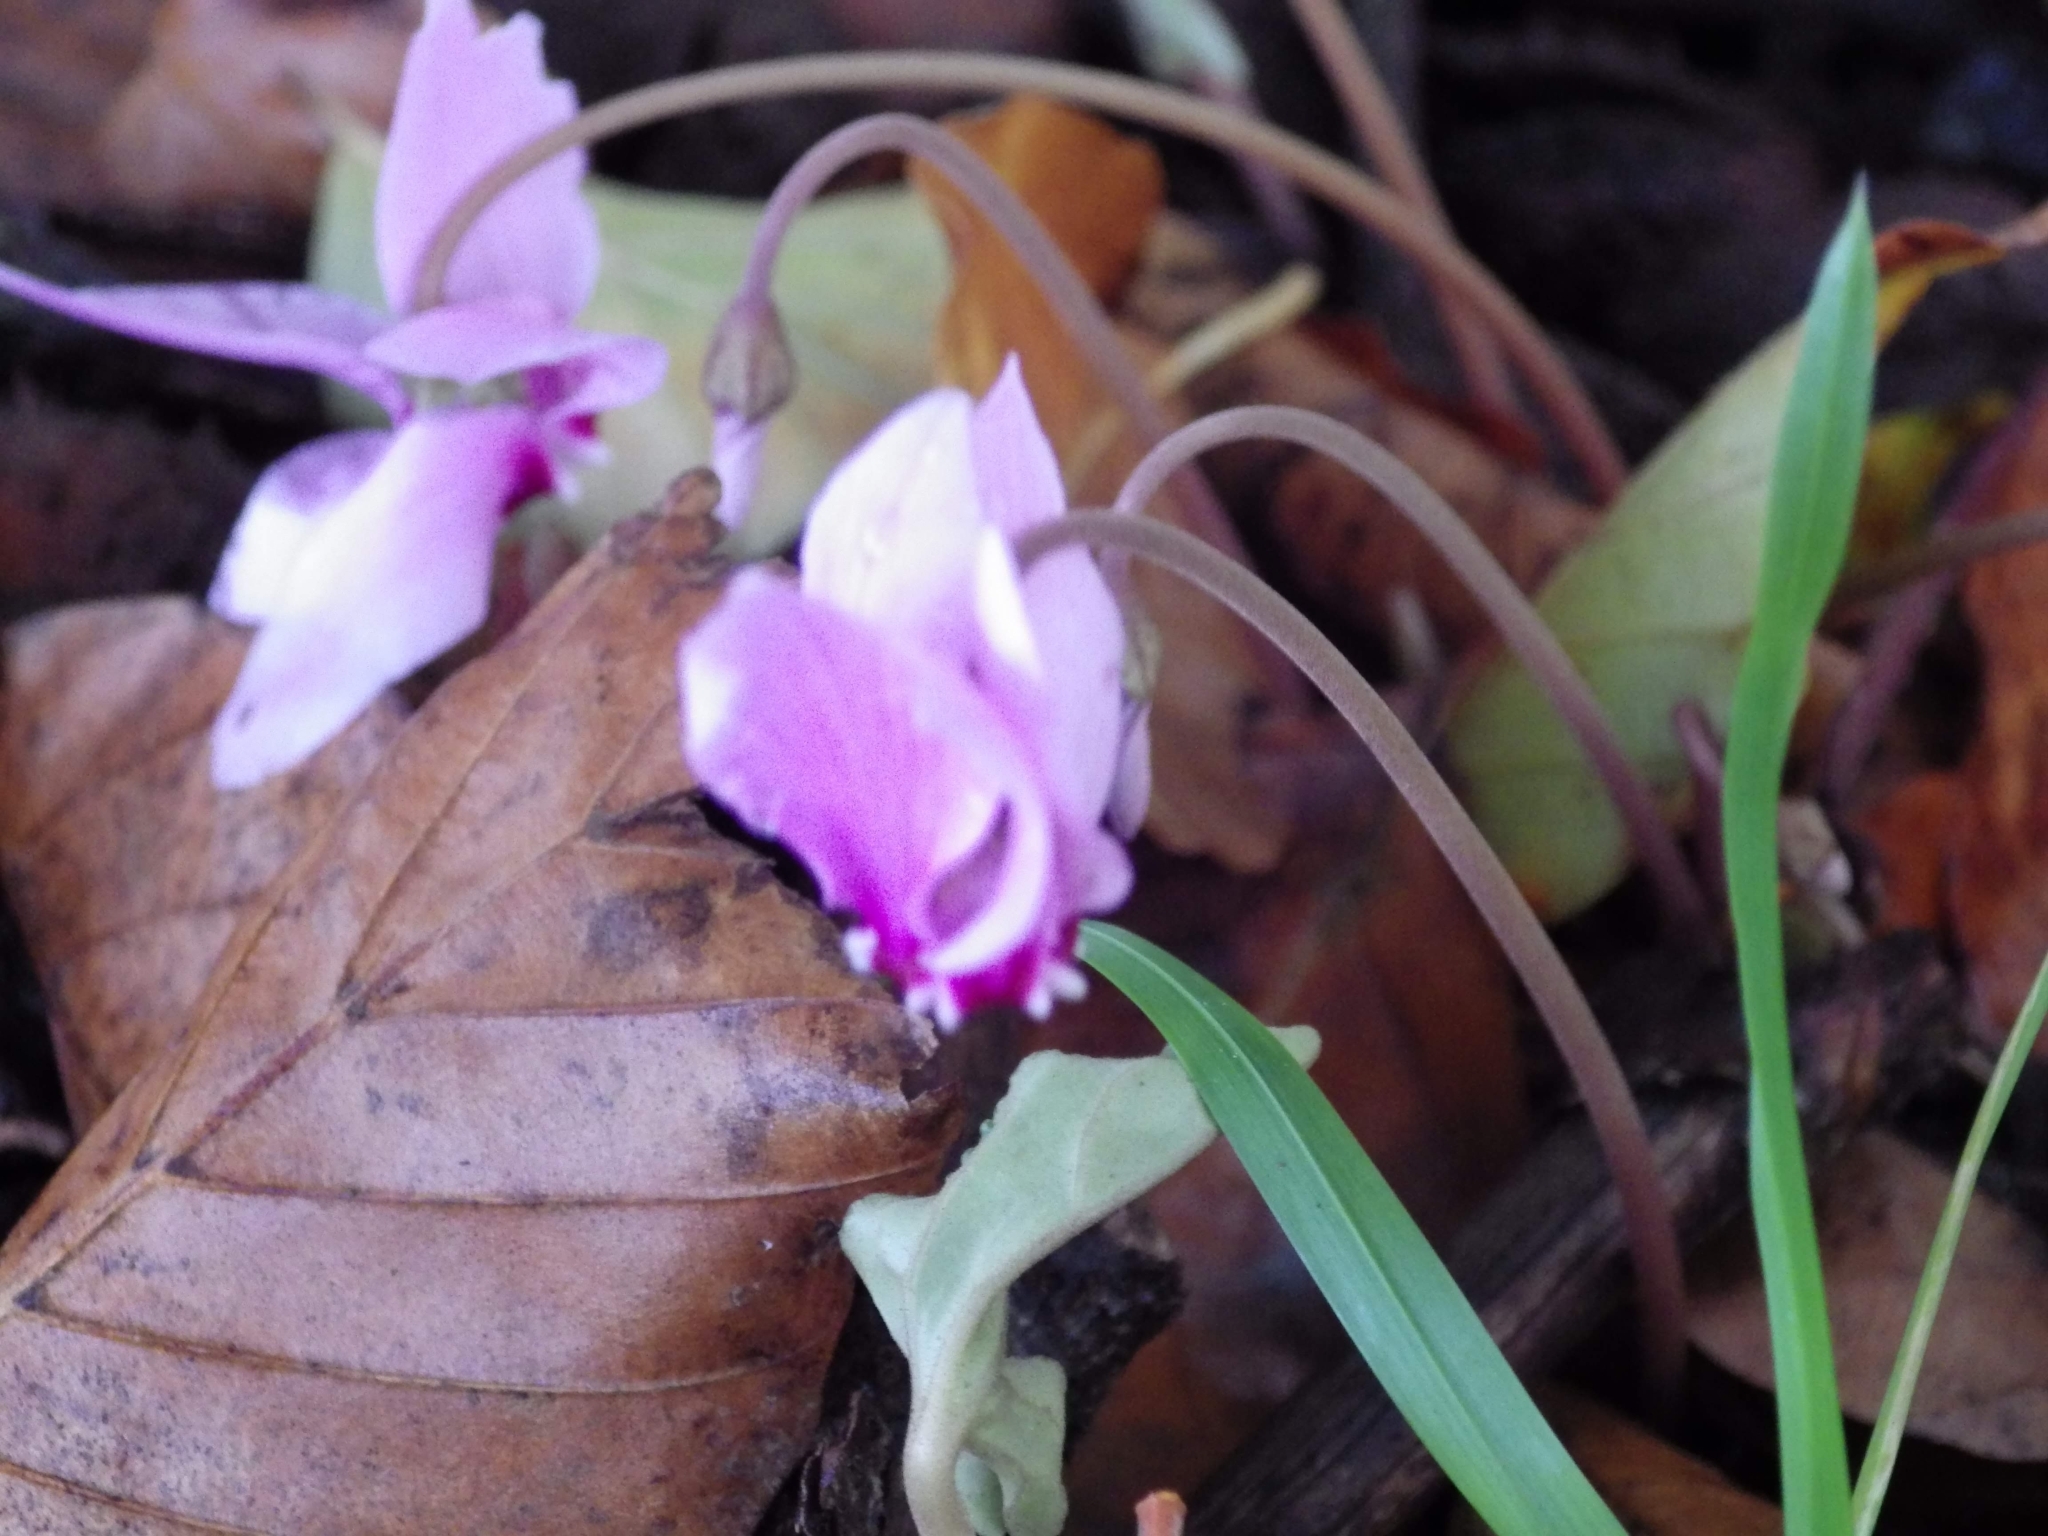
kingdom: Plantae
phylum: Tracheophyta
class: Magnoliopsida
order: Ericales
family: Primulaceae
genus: Cyclamen
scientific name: Cyclamen hederifolium
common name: Sowbread
